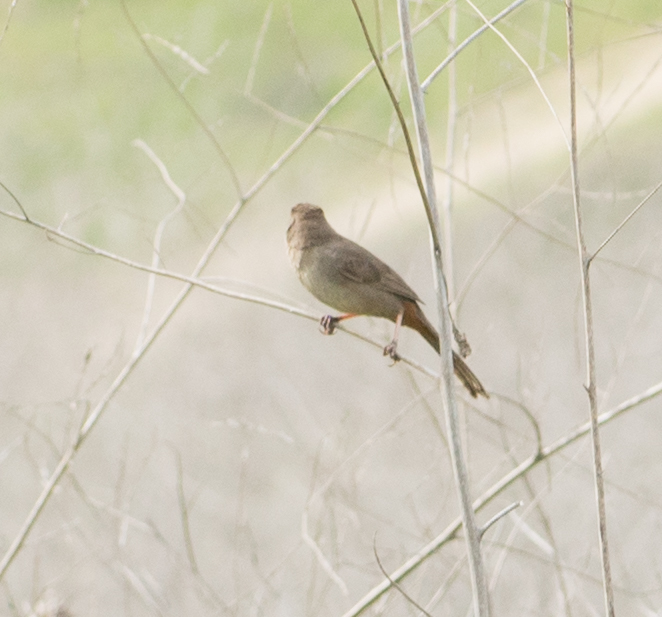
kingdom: Animalia
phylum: Chordata
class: Aves
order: Passeriformes
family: Passerellidae
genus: Melozone
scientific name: Melozone crissalis
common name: California towhee
